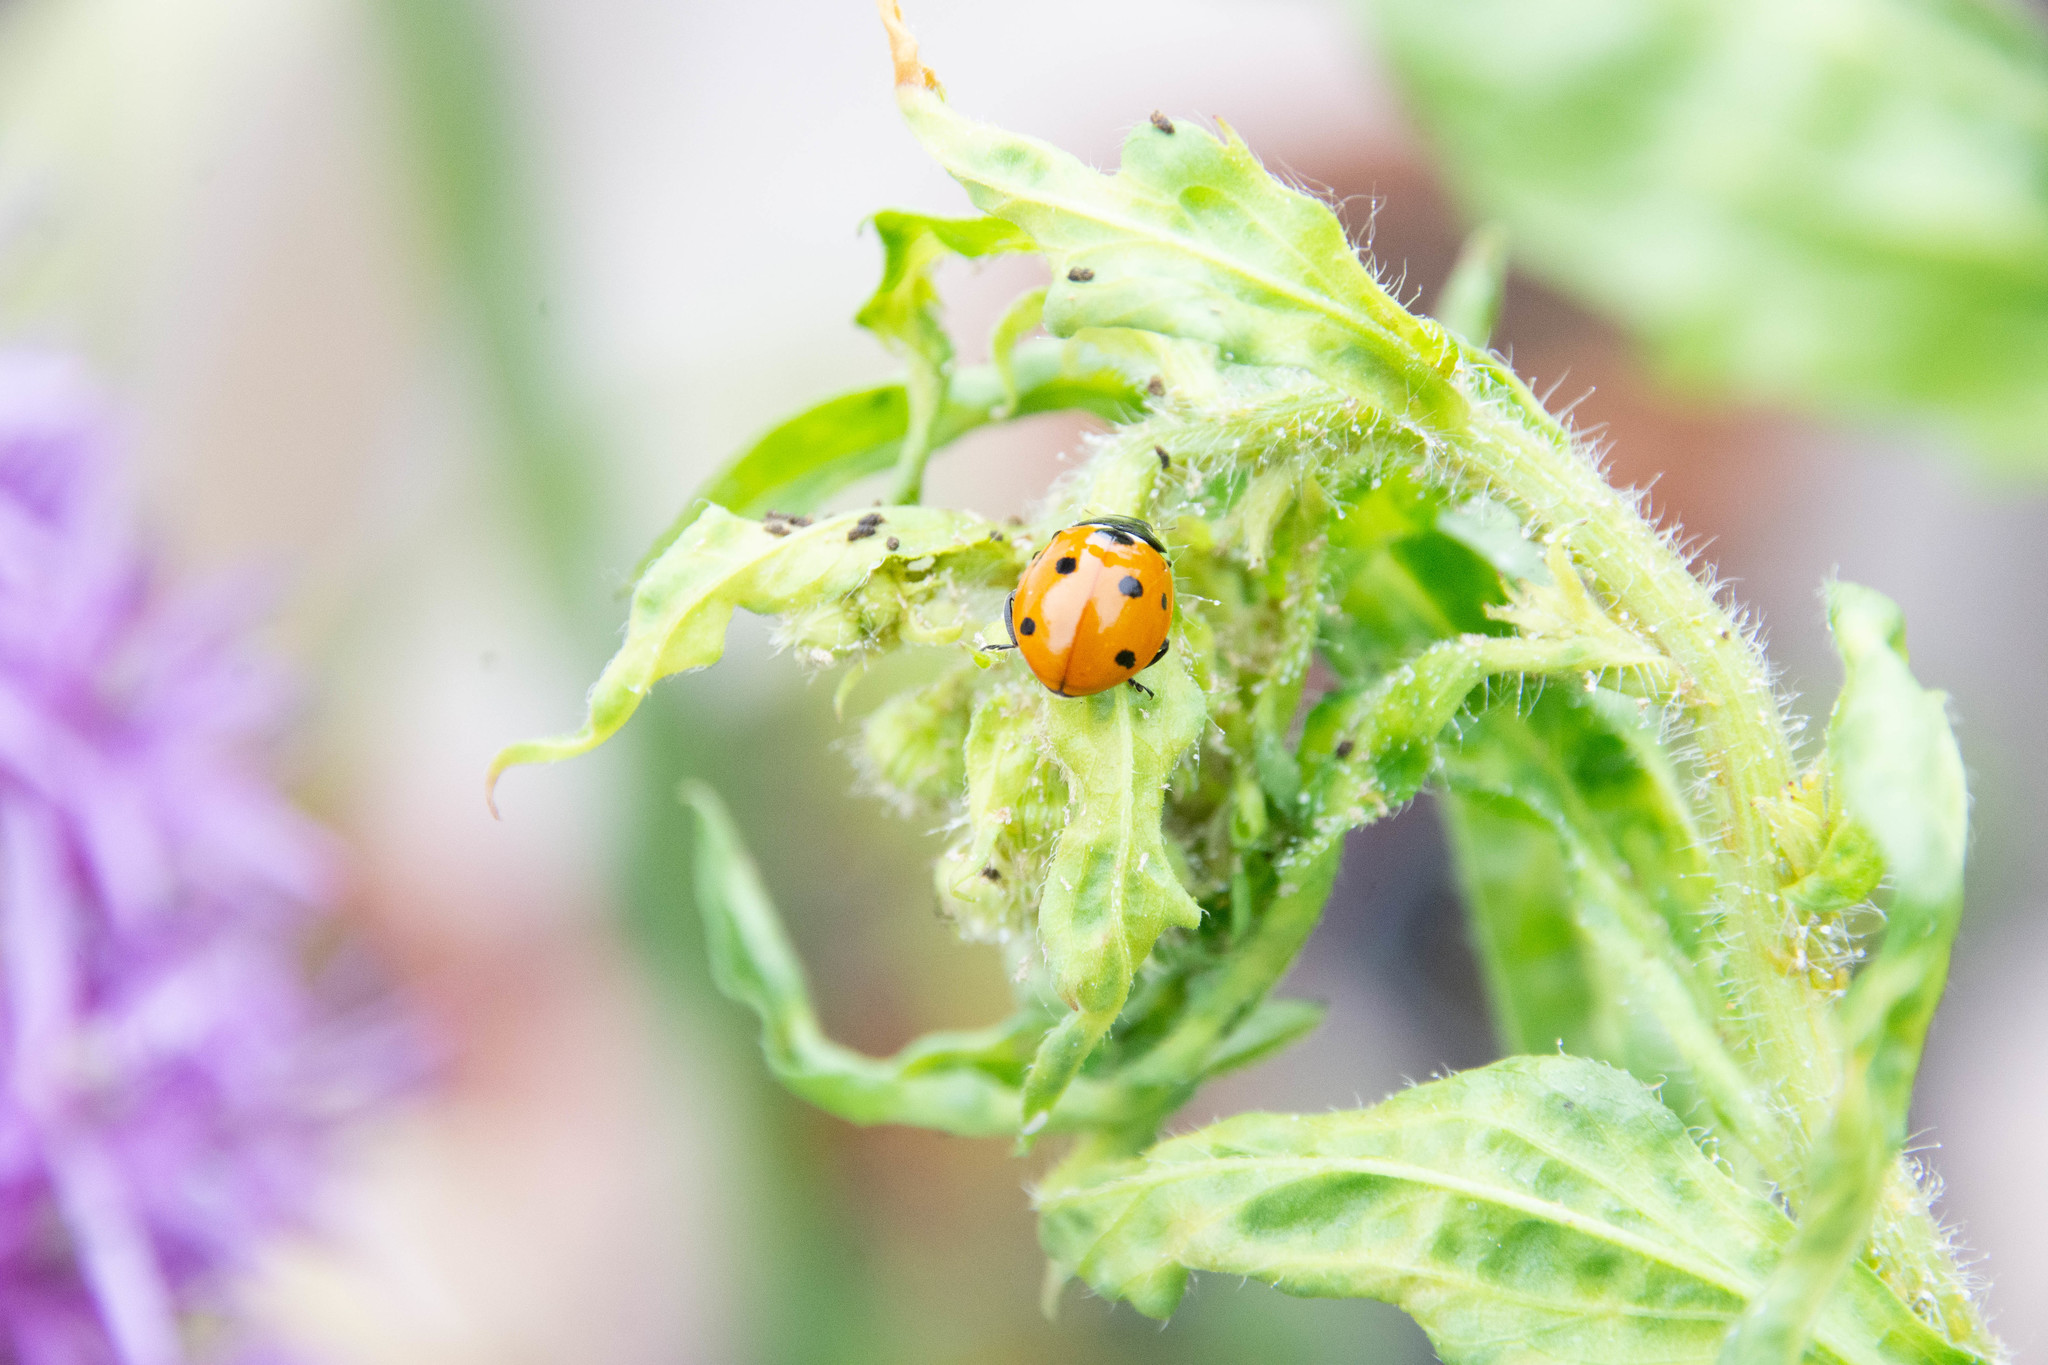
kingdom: Animalia
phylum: Arthropoda
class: Insecta
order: Coleoptera
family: Coccinellidae
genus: Coccinella
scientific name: Coccinella septempunctata
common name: Sevenspotted lady beetle
